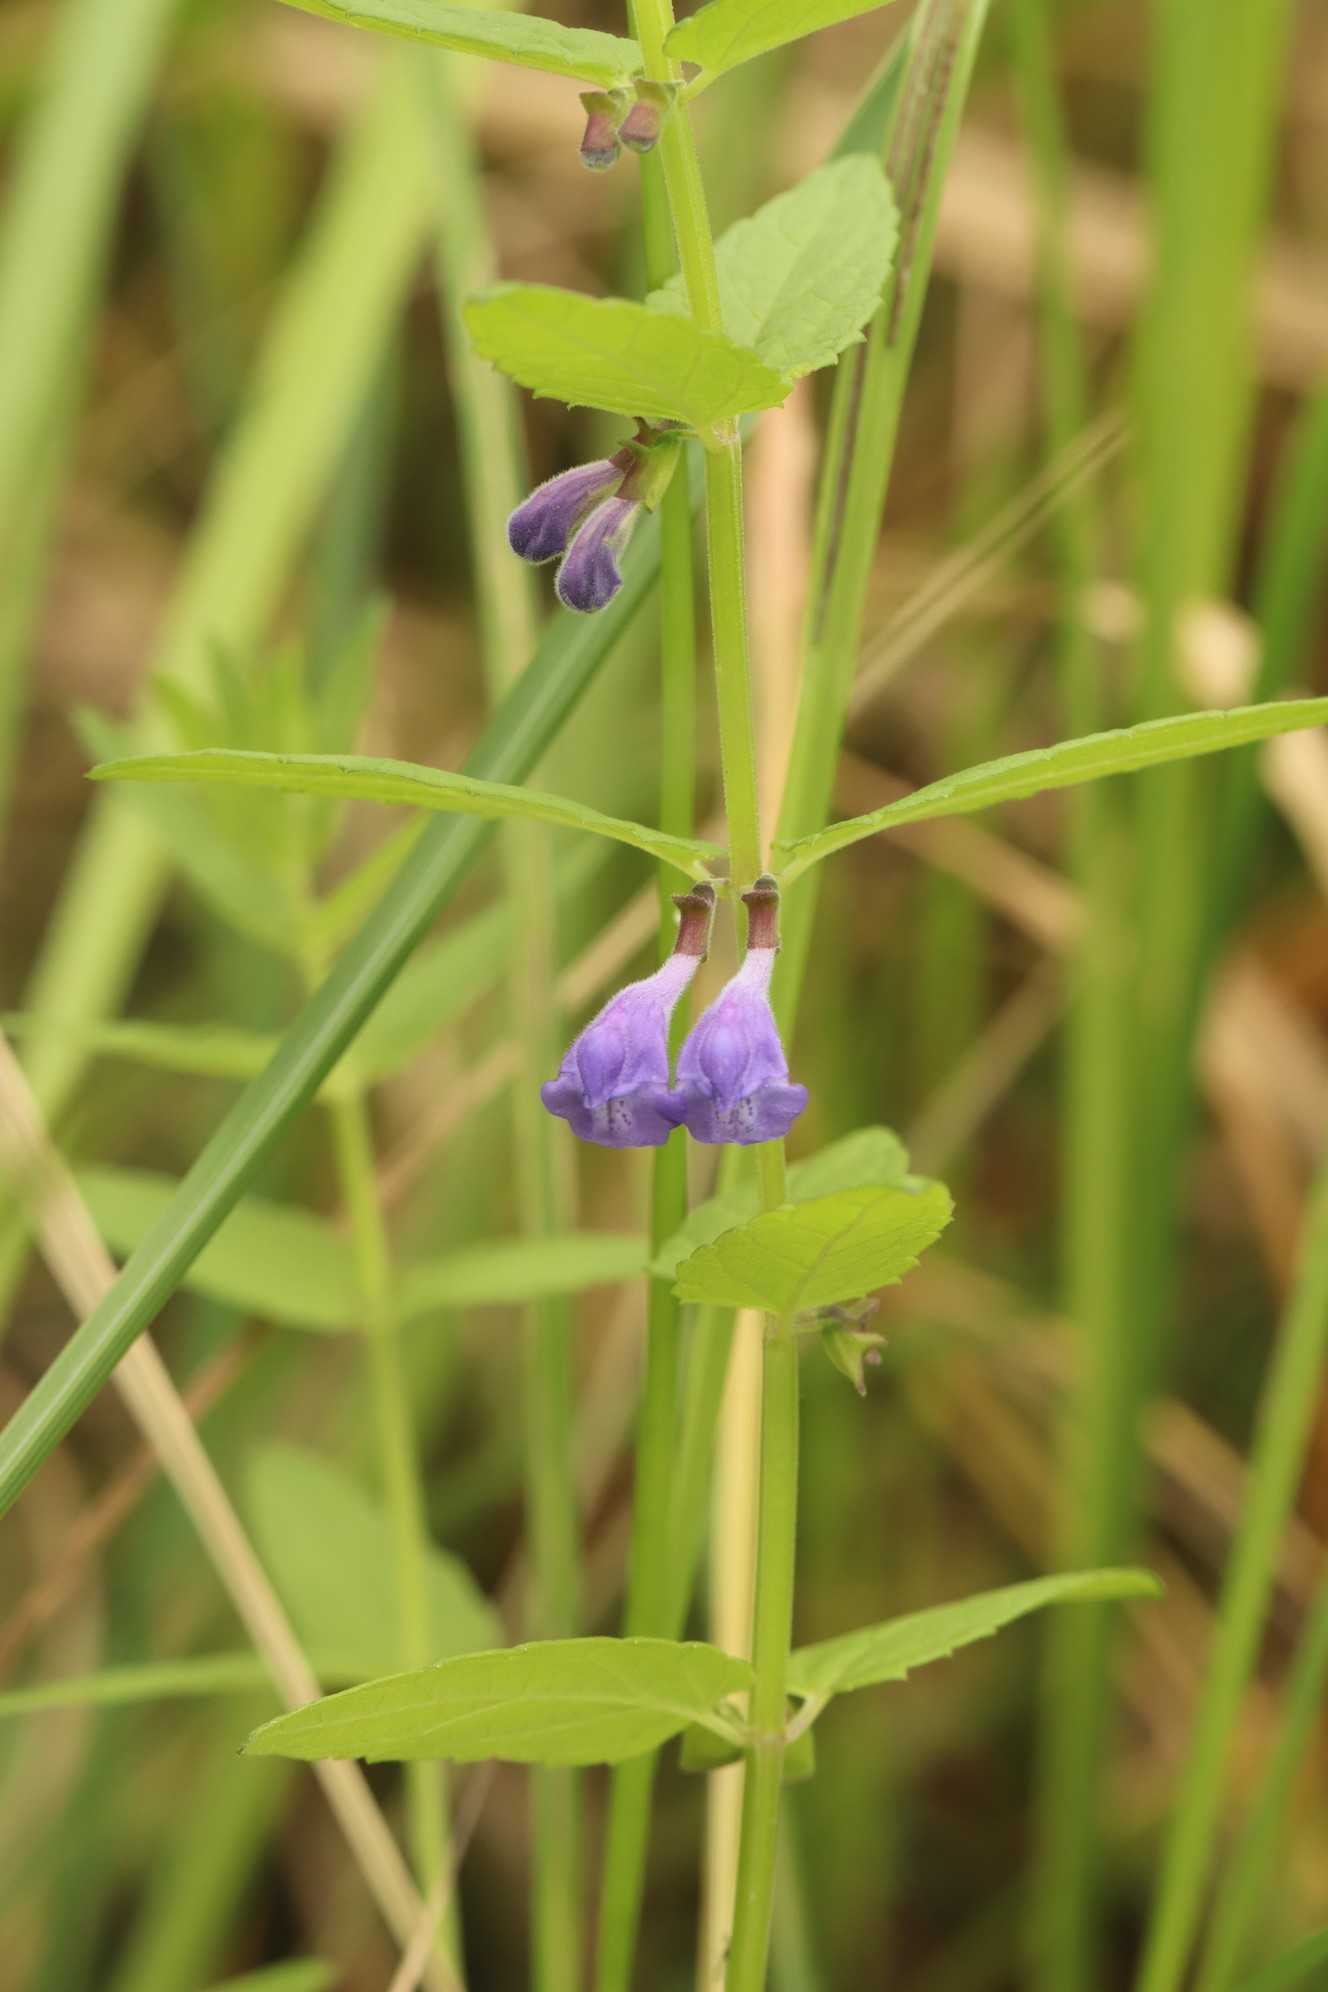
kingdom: Plantae
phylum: Tracheophyta
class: Magnoliopsida
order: Lamiales
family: Lamiaceae
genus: Scutellaria
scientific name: Scutellaria galericulata
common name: Skullcap
